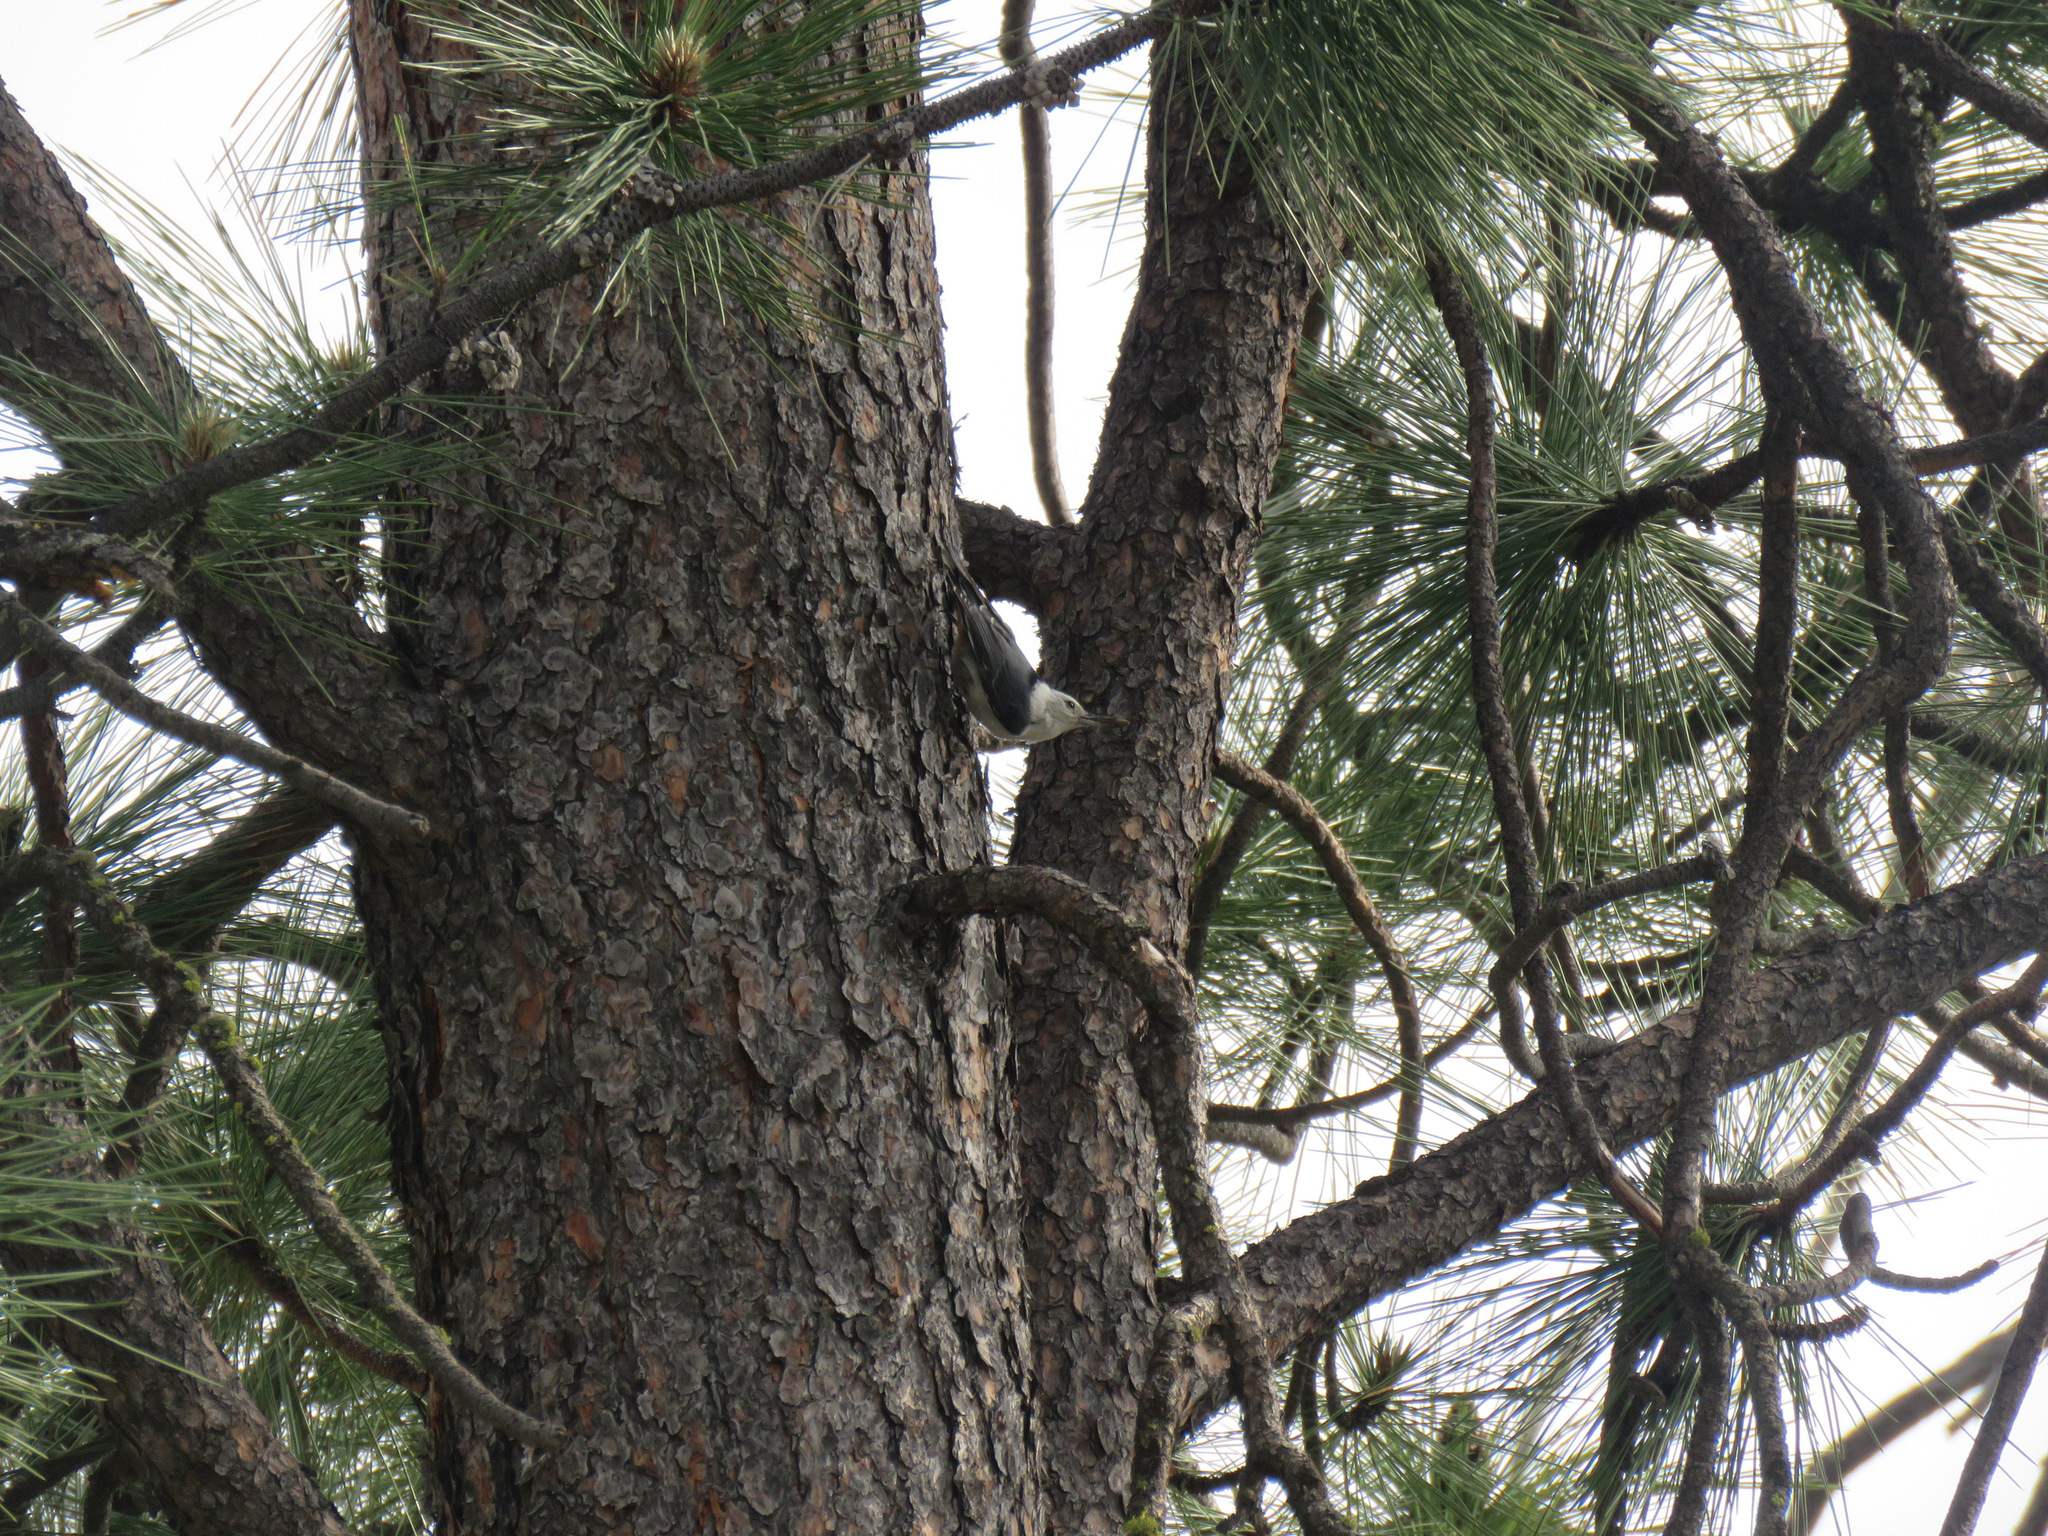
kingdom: Animalia
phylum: Chordata
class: Aves
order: Passeriformes
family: Sittidae
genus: Sitta
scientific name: Sitta carolinensis
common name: White-breasted nuthatch
